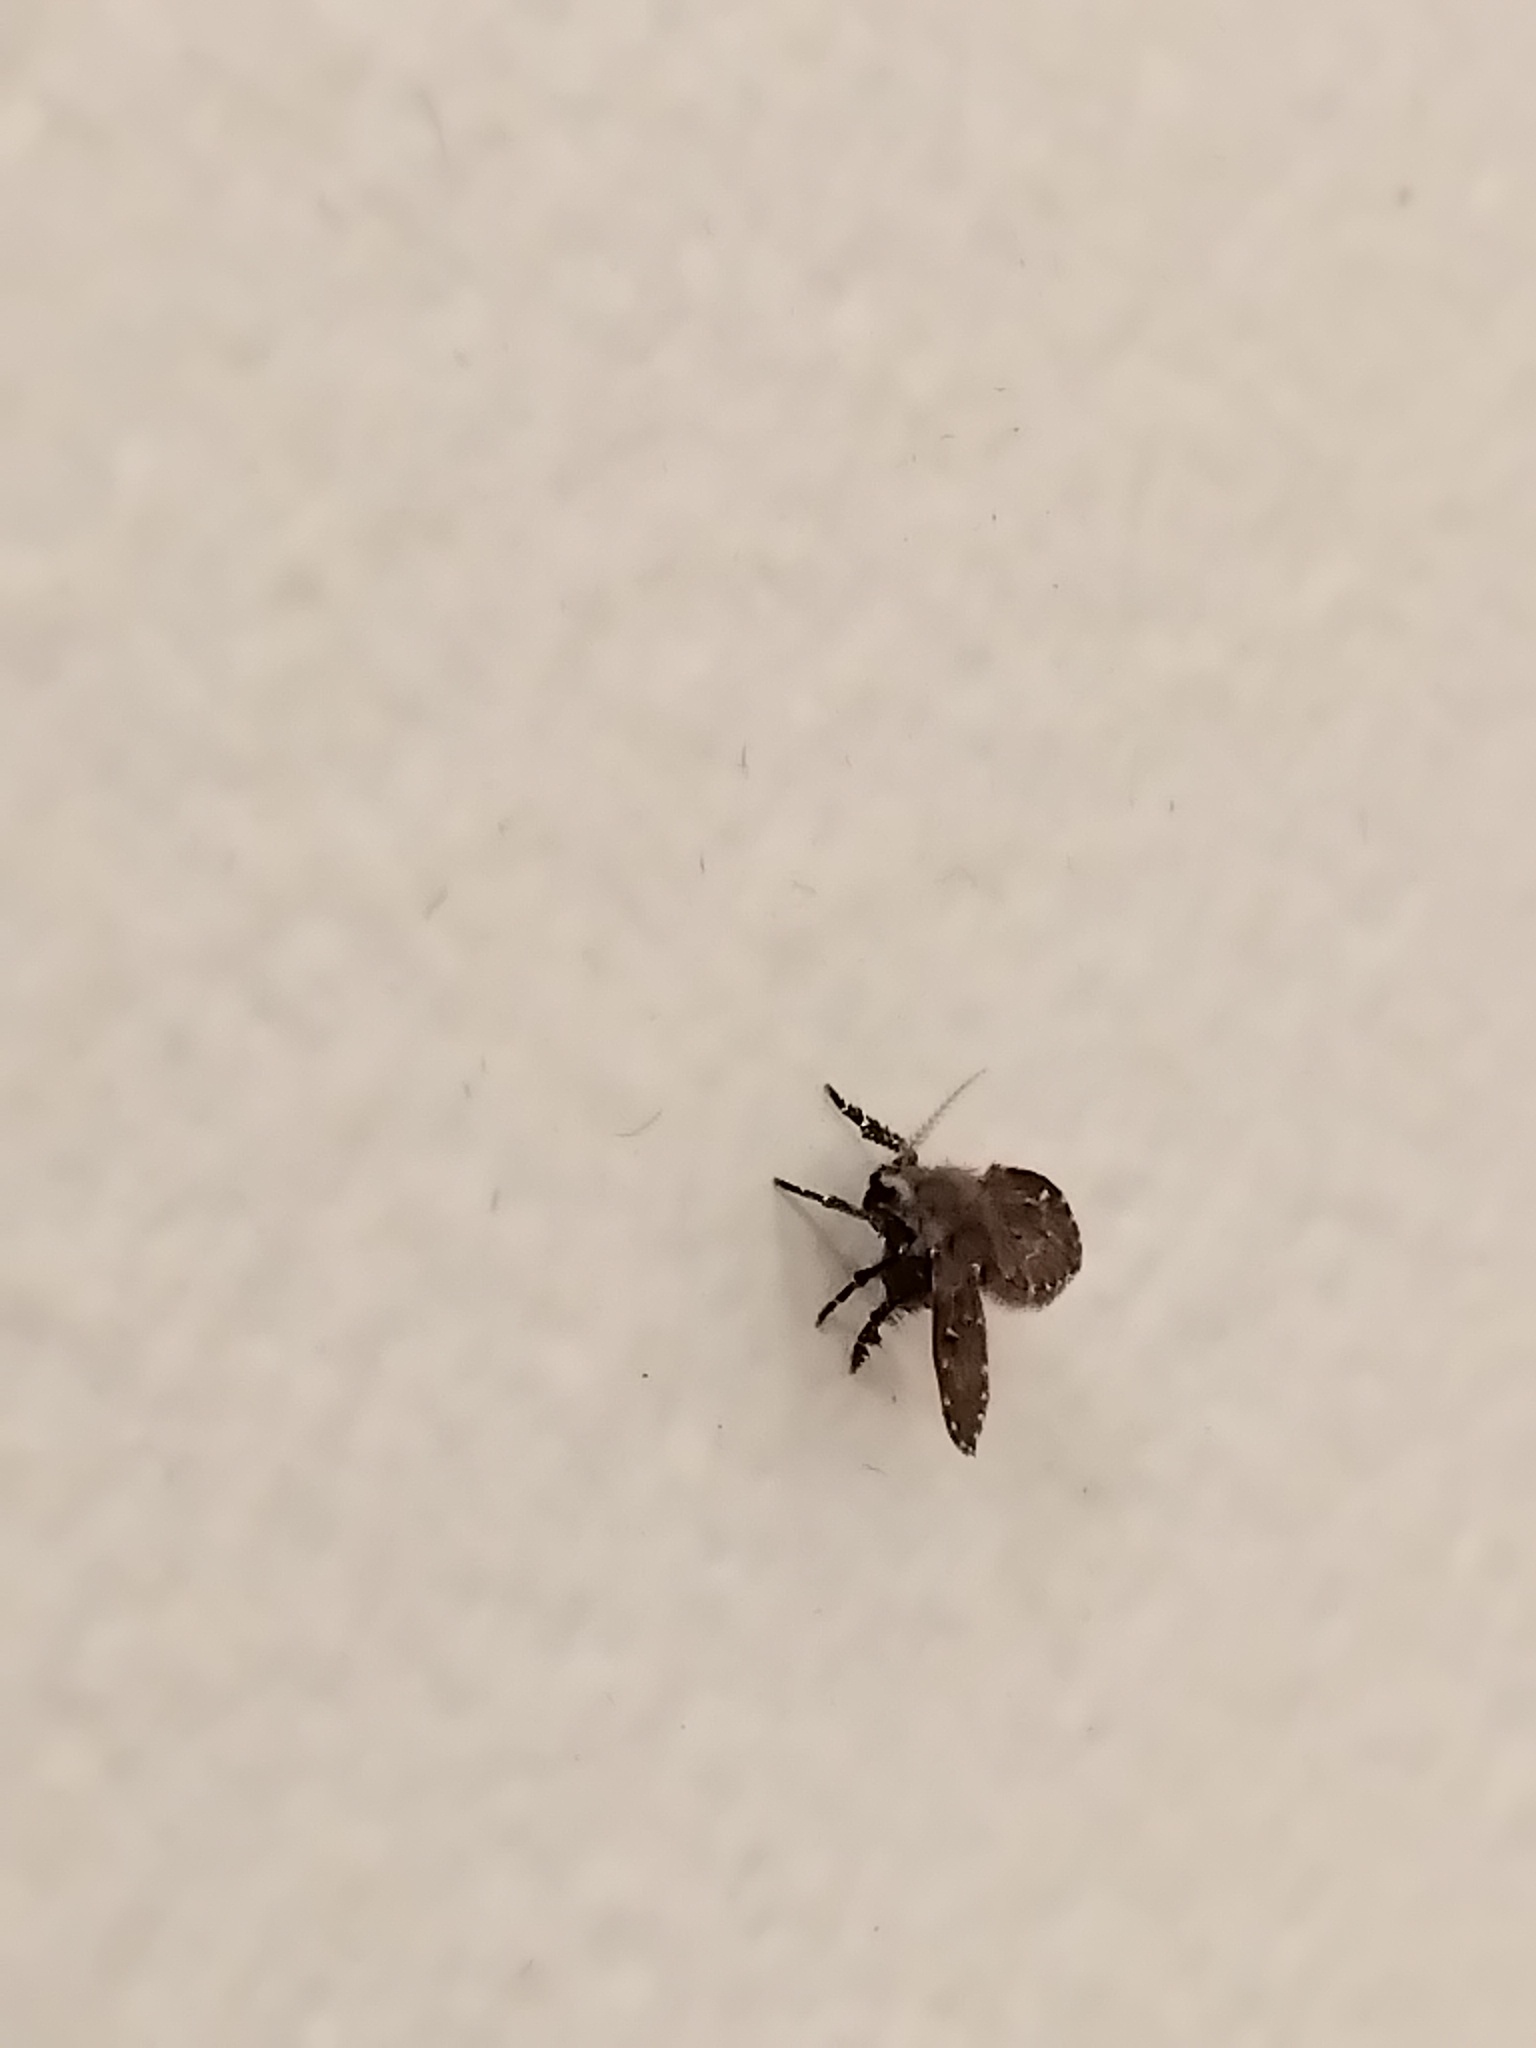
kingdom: Animalia
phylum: Arthropoda
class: Insecta
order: Diptera
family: Psychodidae
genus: Clogmia
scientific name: Clogmia albipunctatus
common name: White-spotted moth fly
